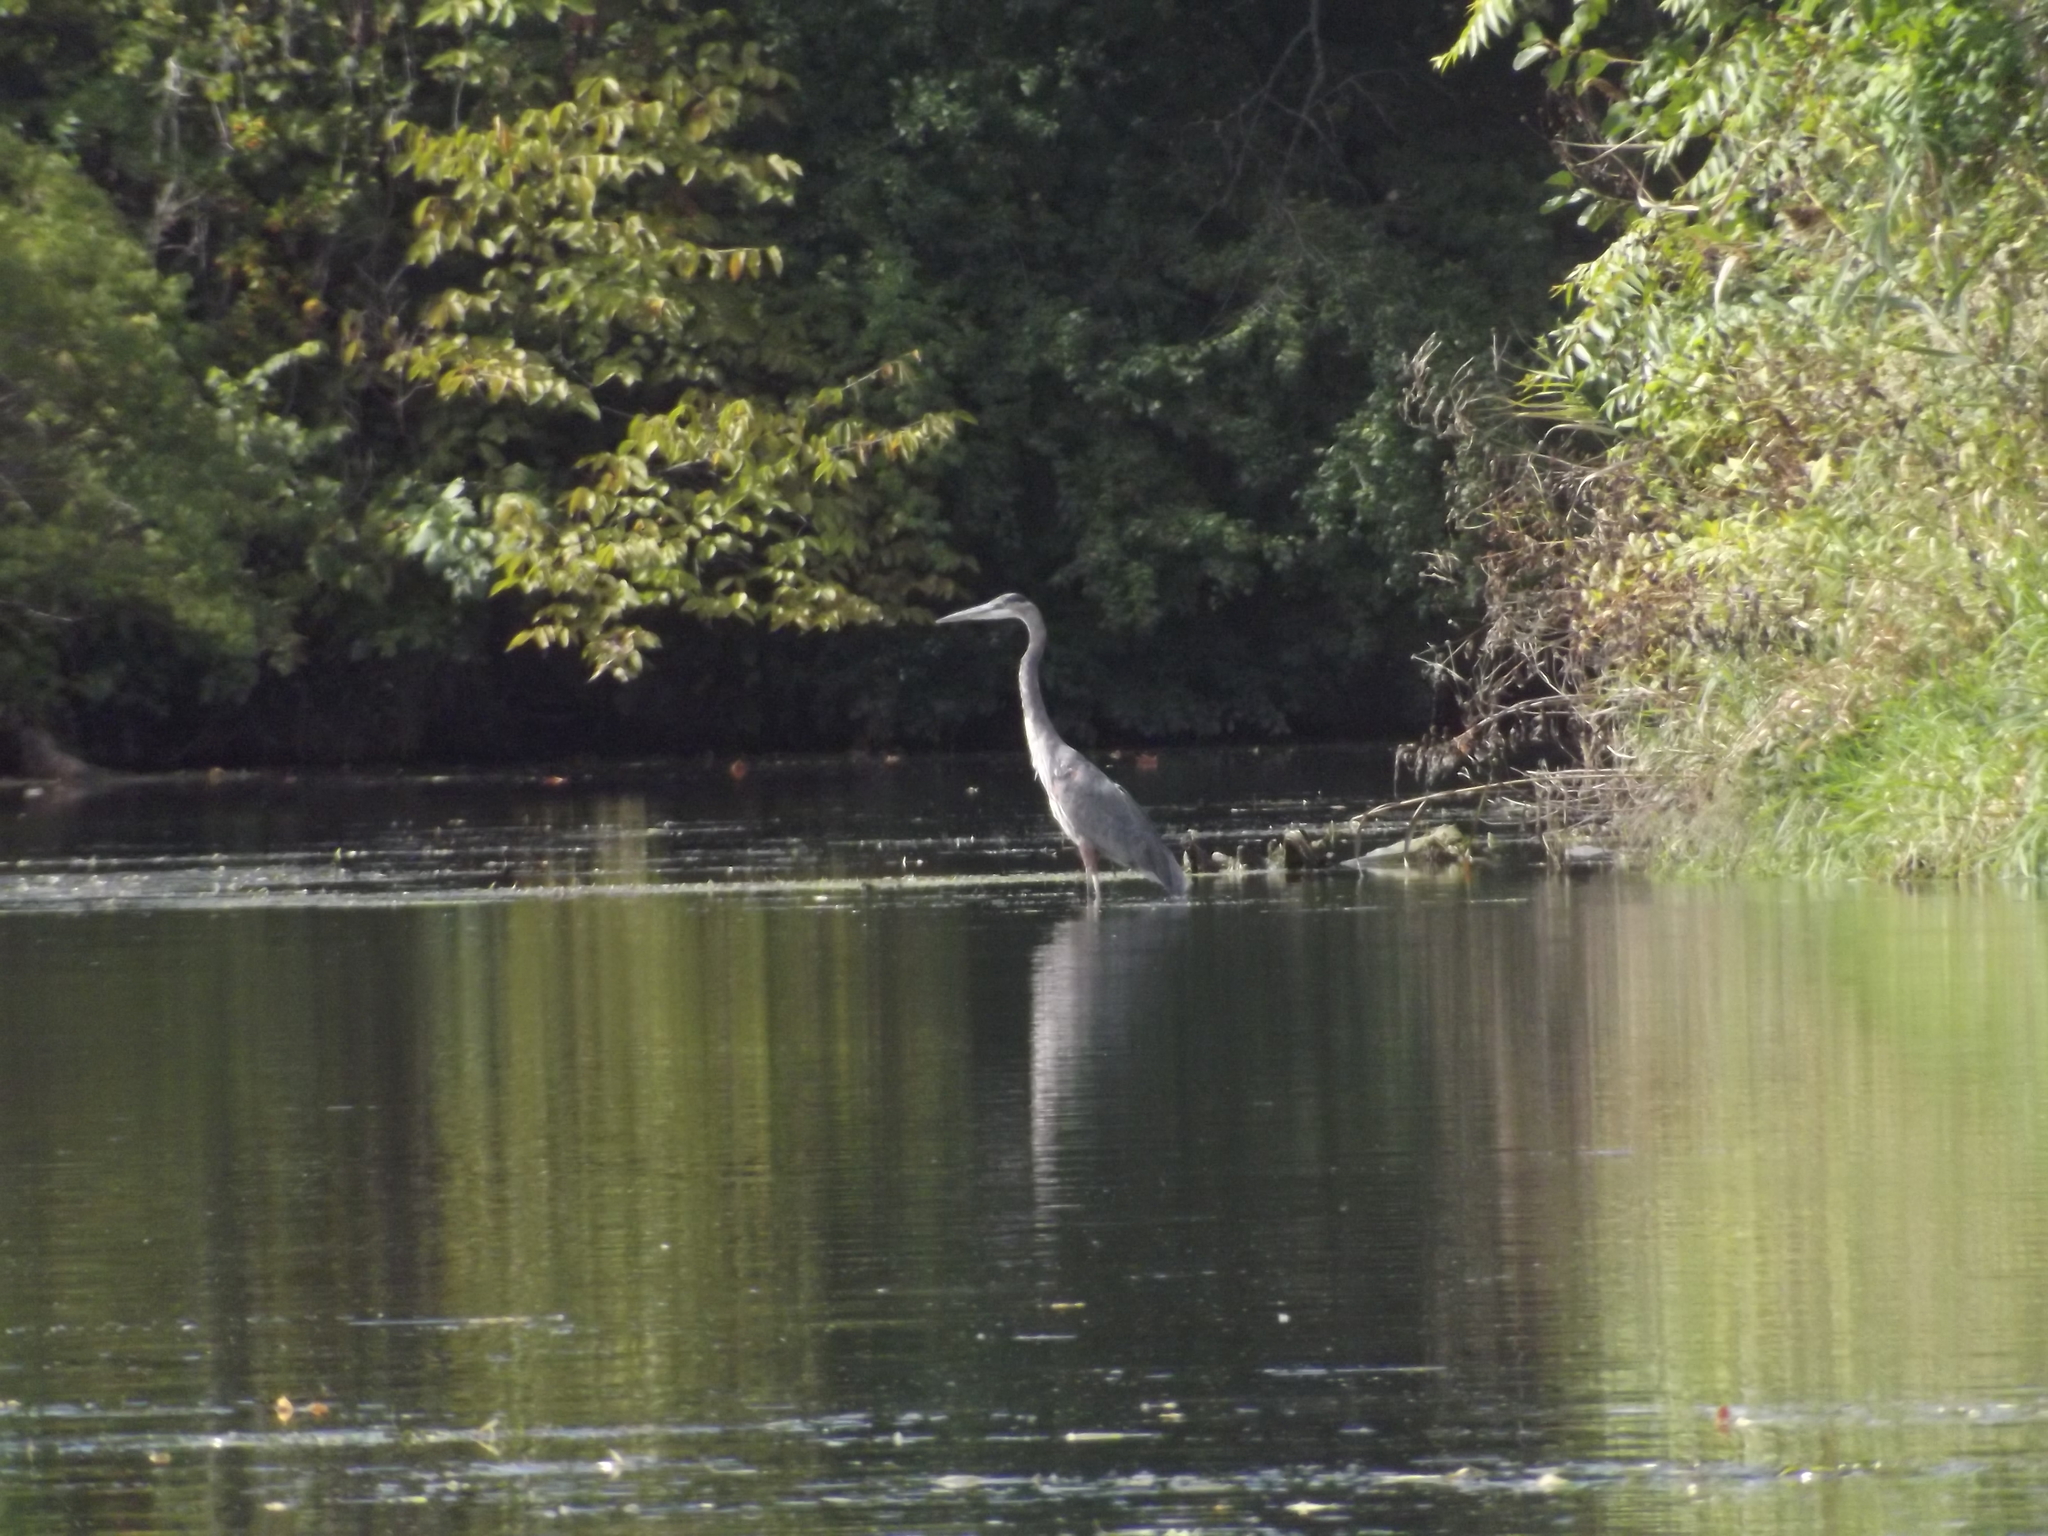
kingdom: Animalia
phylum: Chordata
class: Aves
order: Pelecaniformes
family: Ardeidae
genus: Ardea
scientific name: Ardea herodias
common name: Great blue heron
